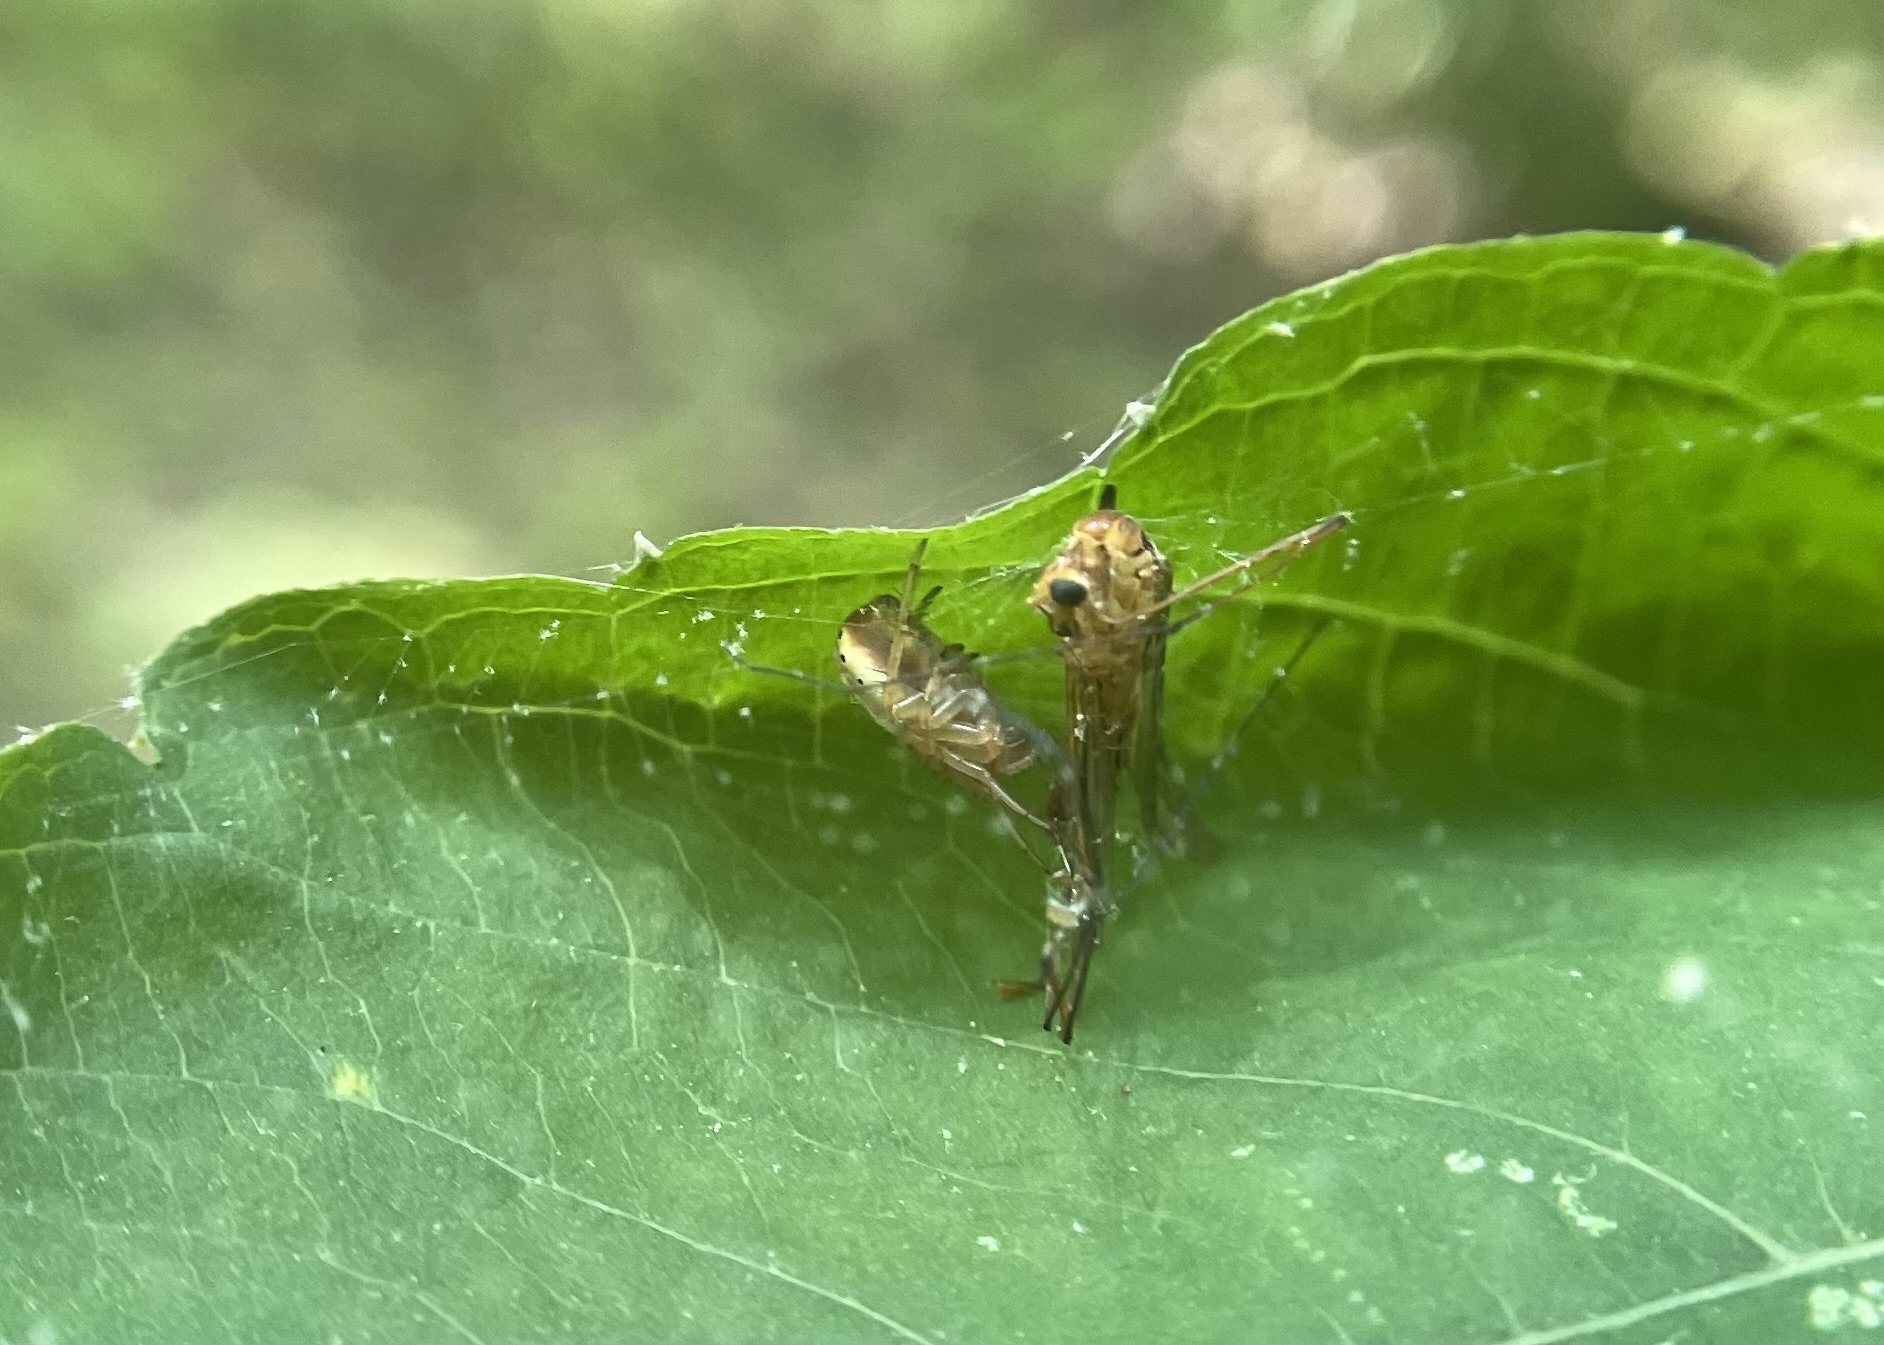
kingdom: Animalia
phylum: Arthropoda
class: Arachnida
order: Araneae
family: Araneidae
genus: Araniella
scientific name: Araniella displicata
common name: Sixspotted orb weaver
